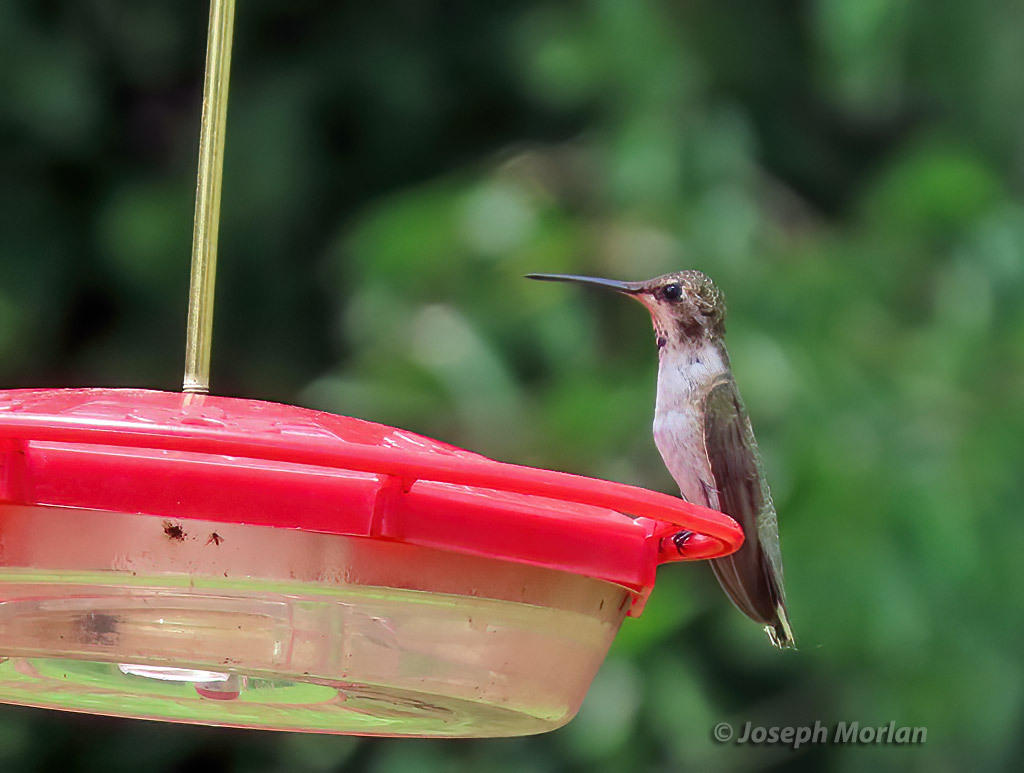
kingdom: Animalia
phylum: Chordata
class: Aves
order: Apodiformes
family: Trochilidae
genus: Archilochus
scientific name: Archilochus alexandri
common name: Black-chinned hummingbird
